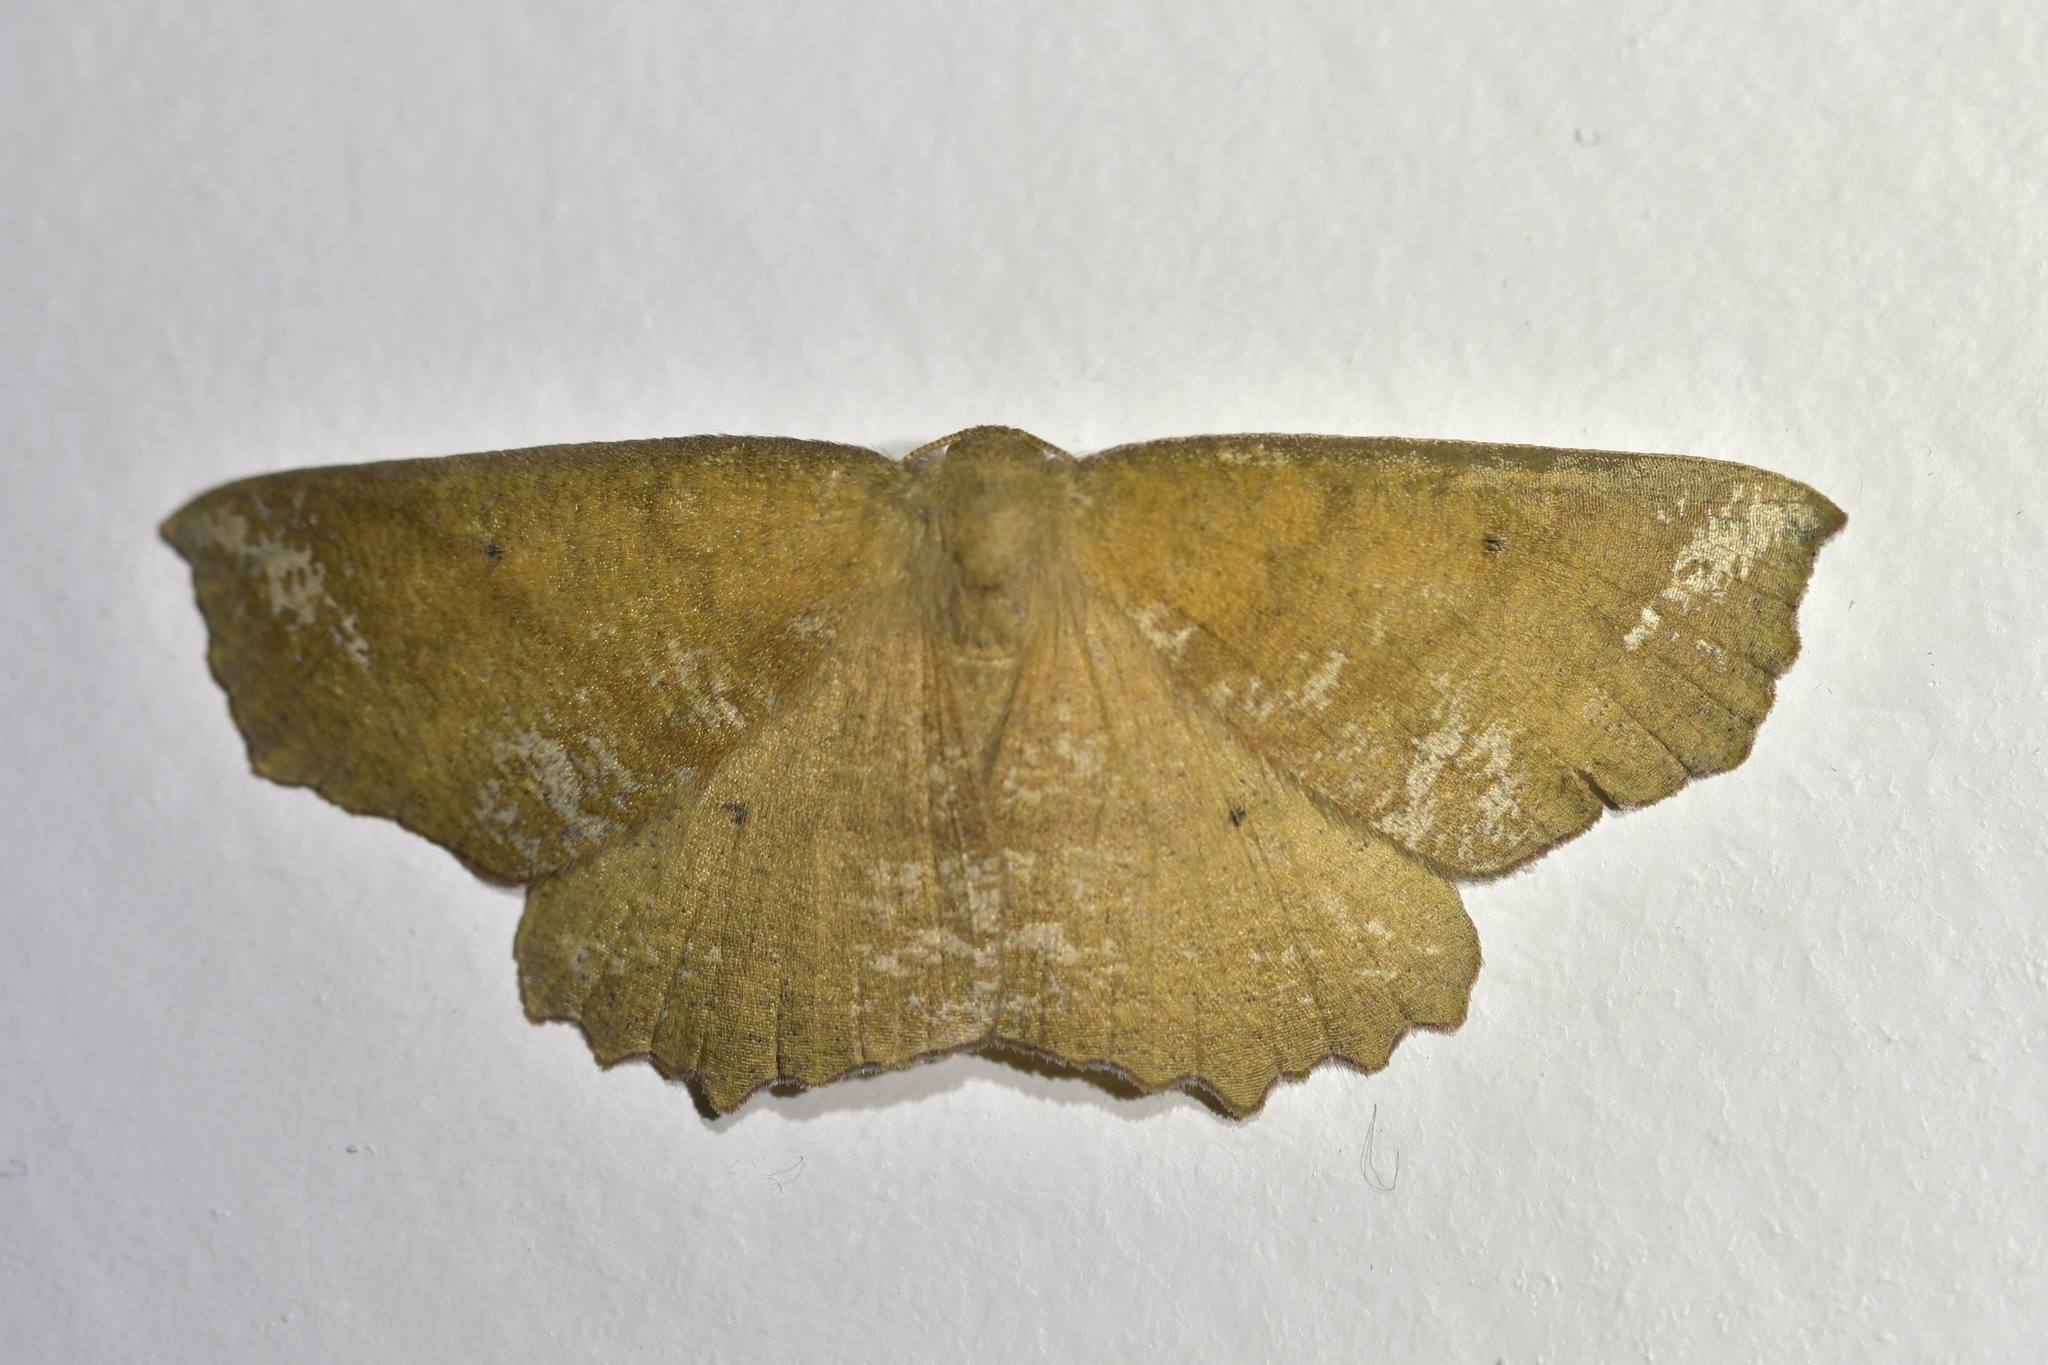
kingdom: Animalia
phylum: Arthropoda
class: Insecta
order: Lepidoptera
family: Geometridae
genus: Xyridacma
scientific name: Xyridacma ustaria
